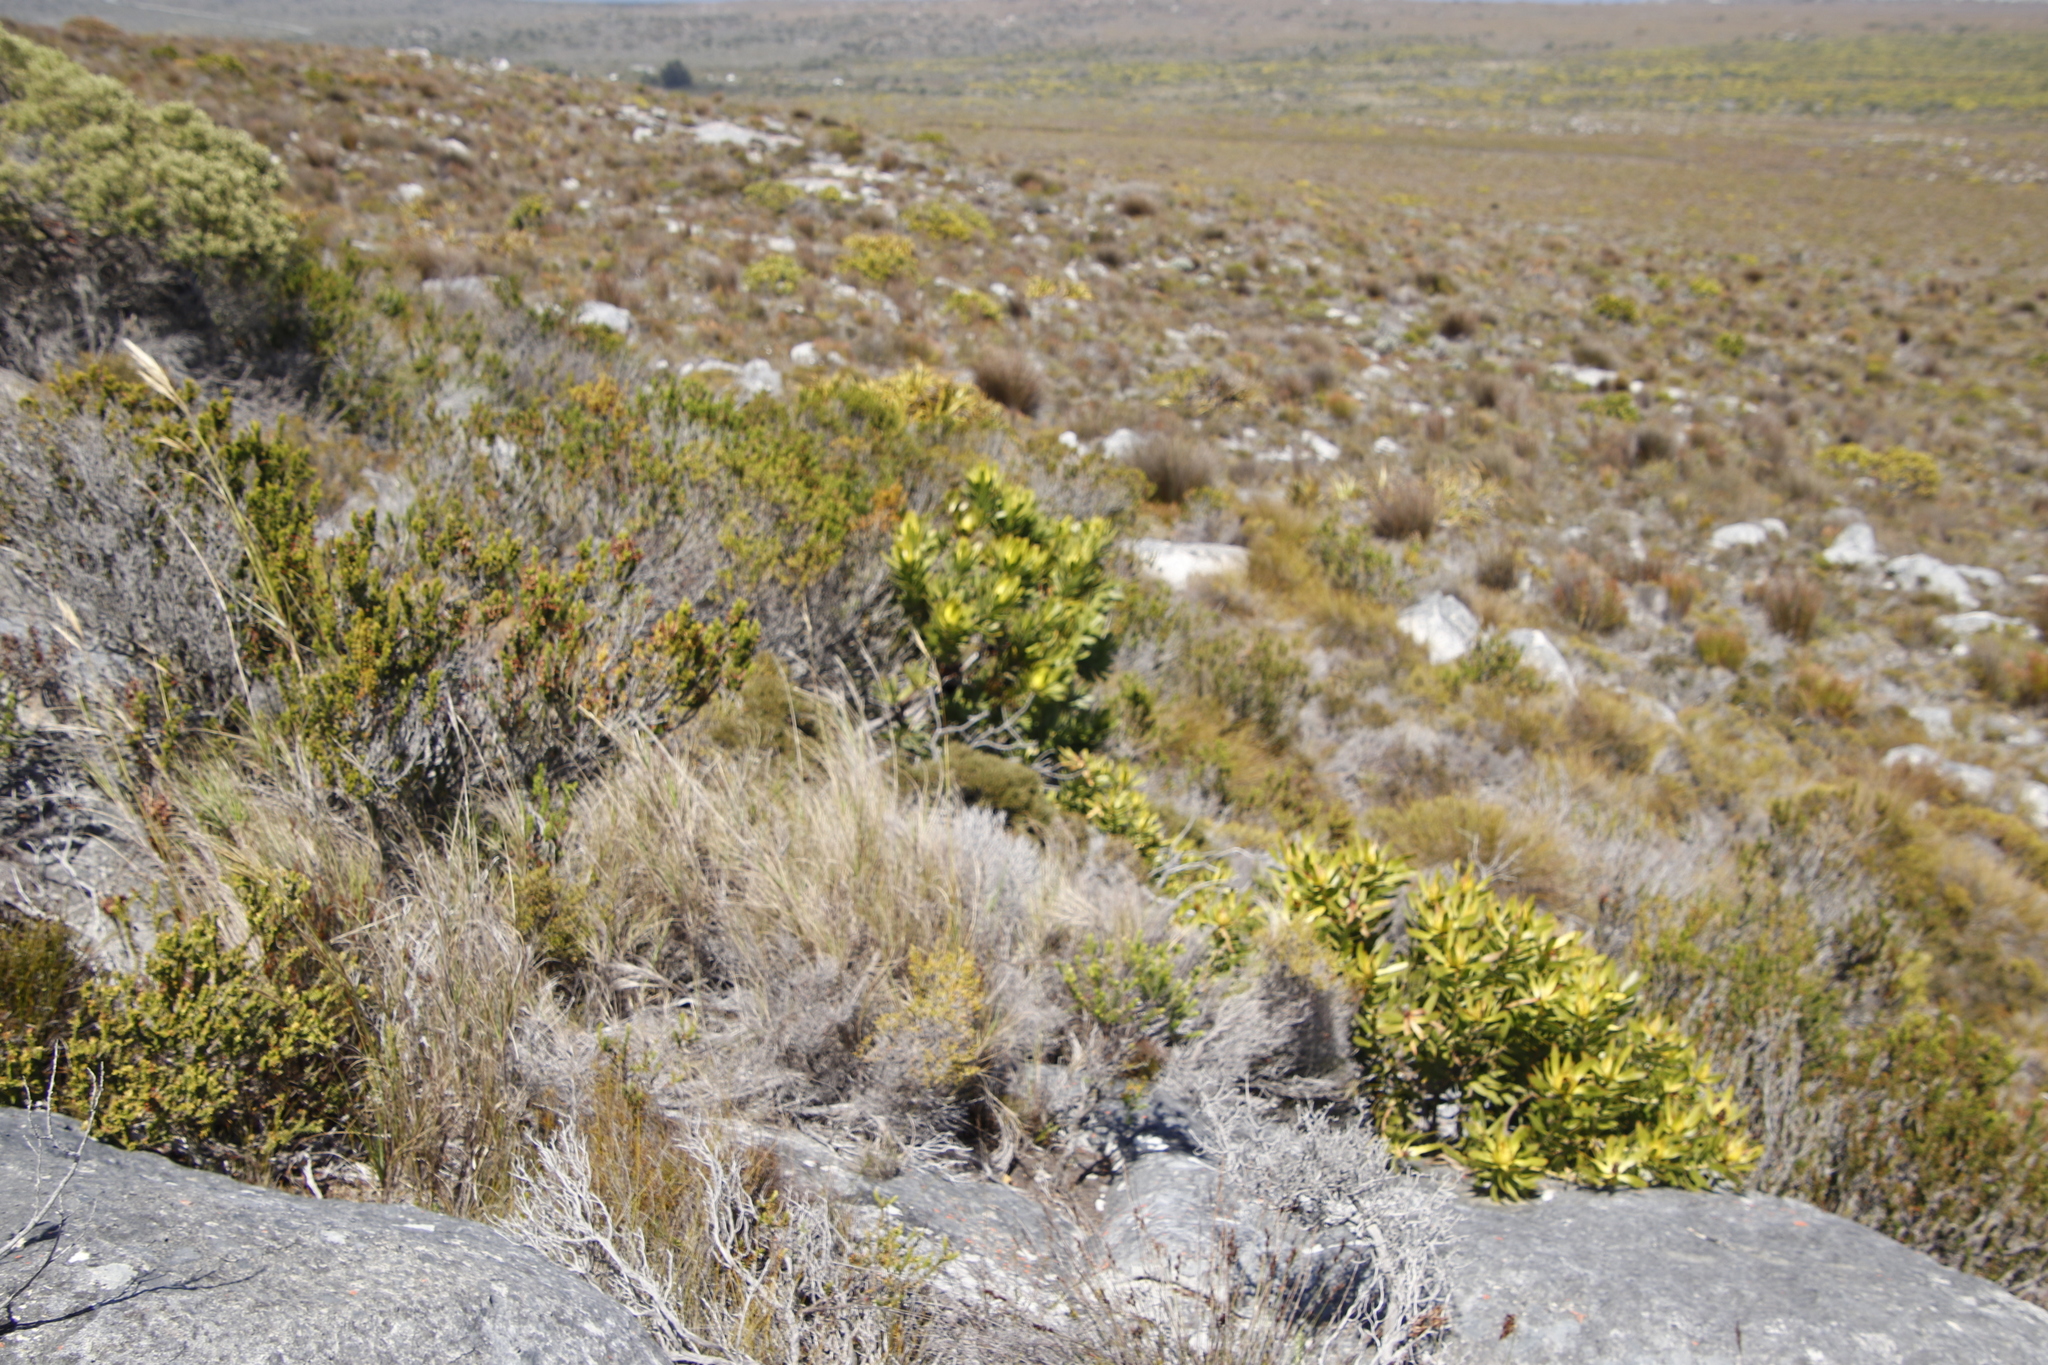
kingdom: Plantae
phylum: Tracheophyta
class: Magnoliopsida
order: Proteales
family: Proteaceae
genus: Leucadendron
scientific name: Leucadendron laureolum
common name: Golden sunshinebush
